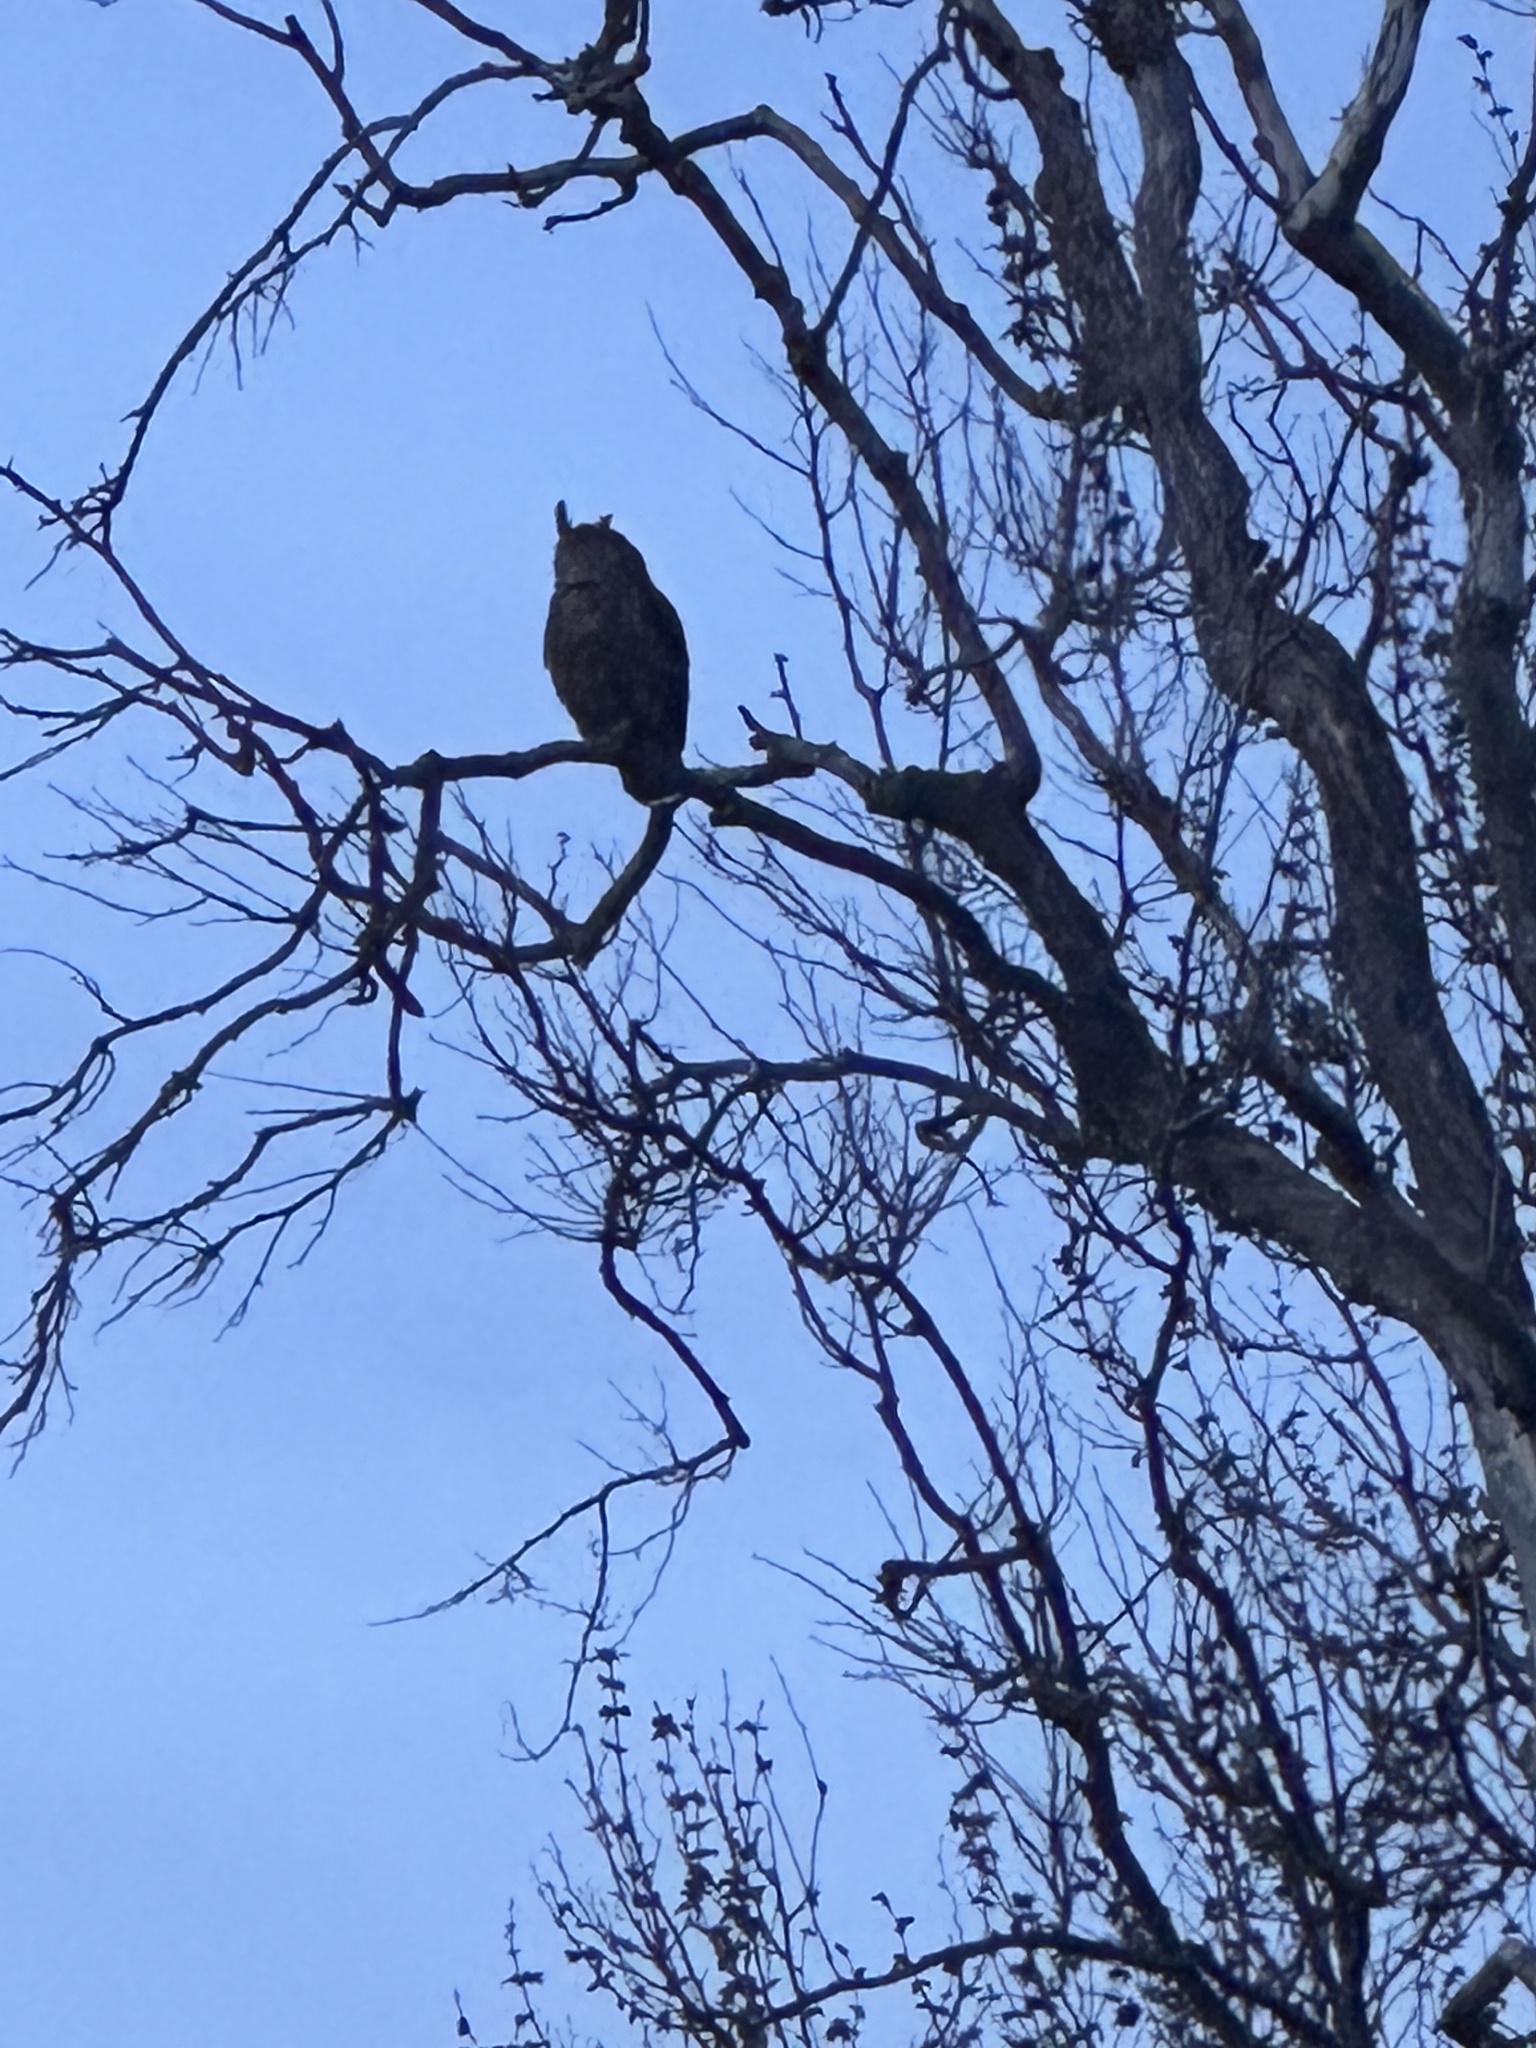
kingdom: Animalia
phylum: Chordata
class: Aves
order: Strigiformes
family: Strigidae
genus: Bubo
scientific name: Bubo virginianus
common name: Great horned owl
